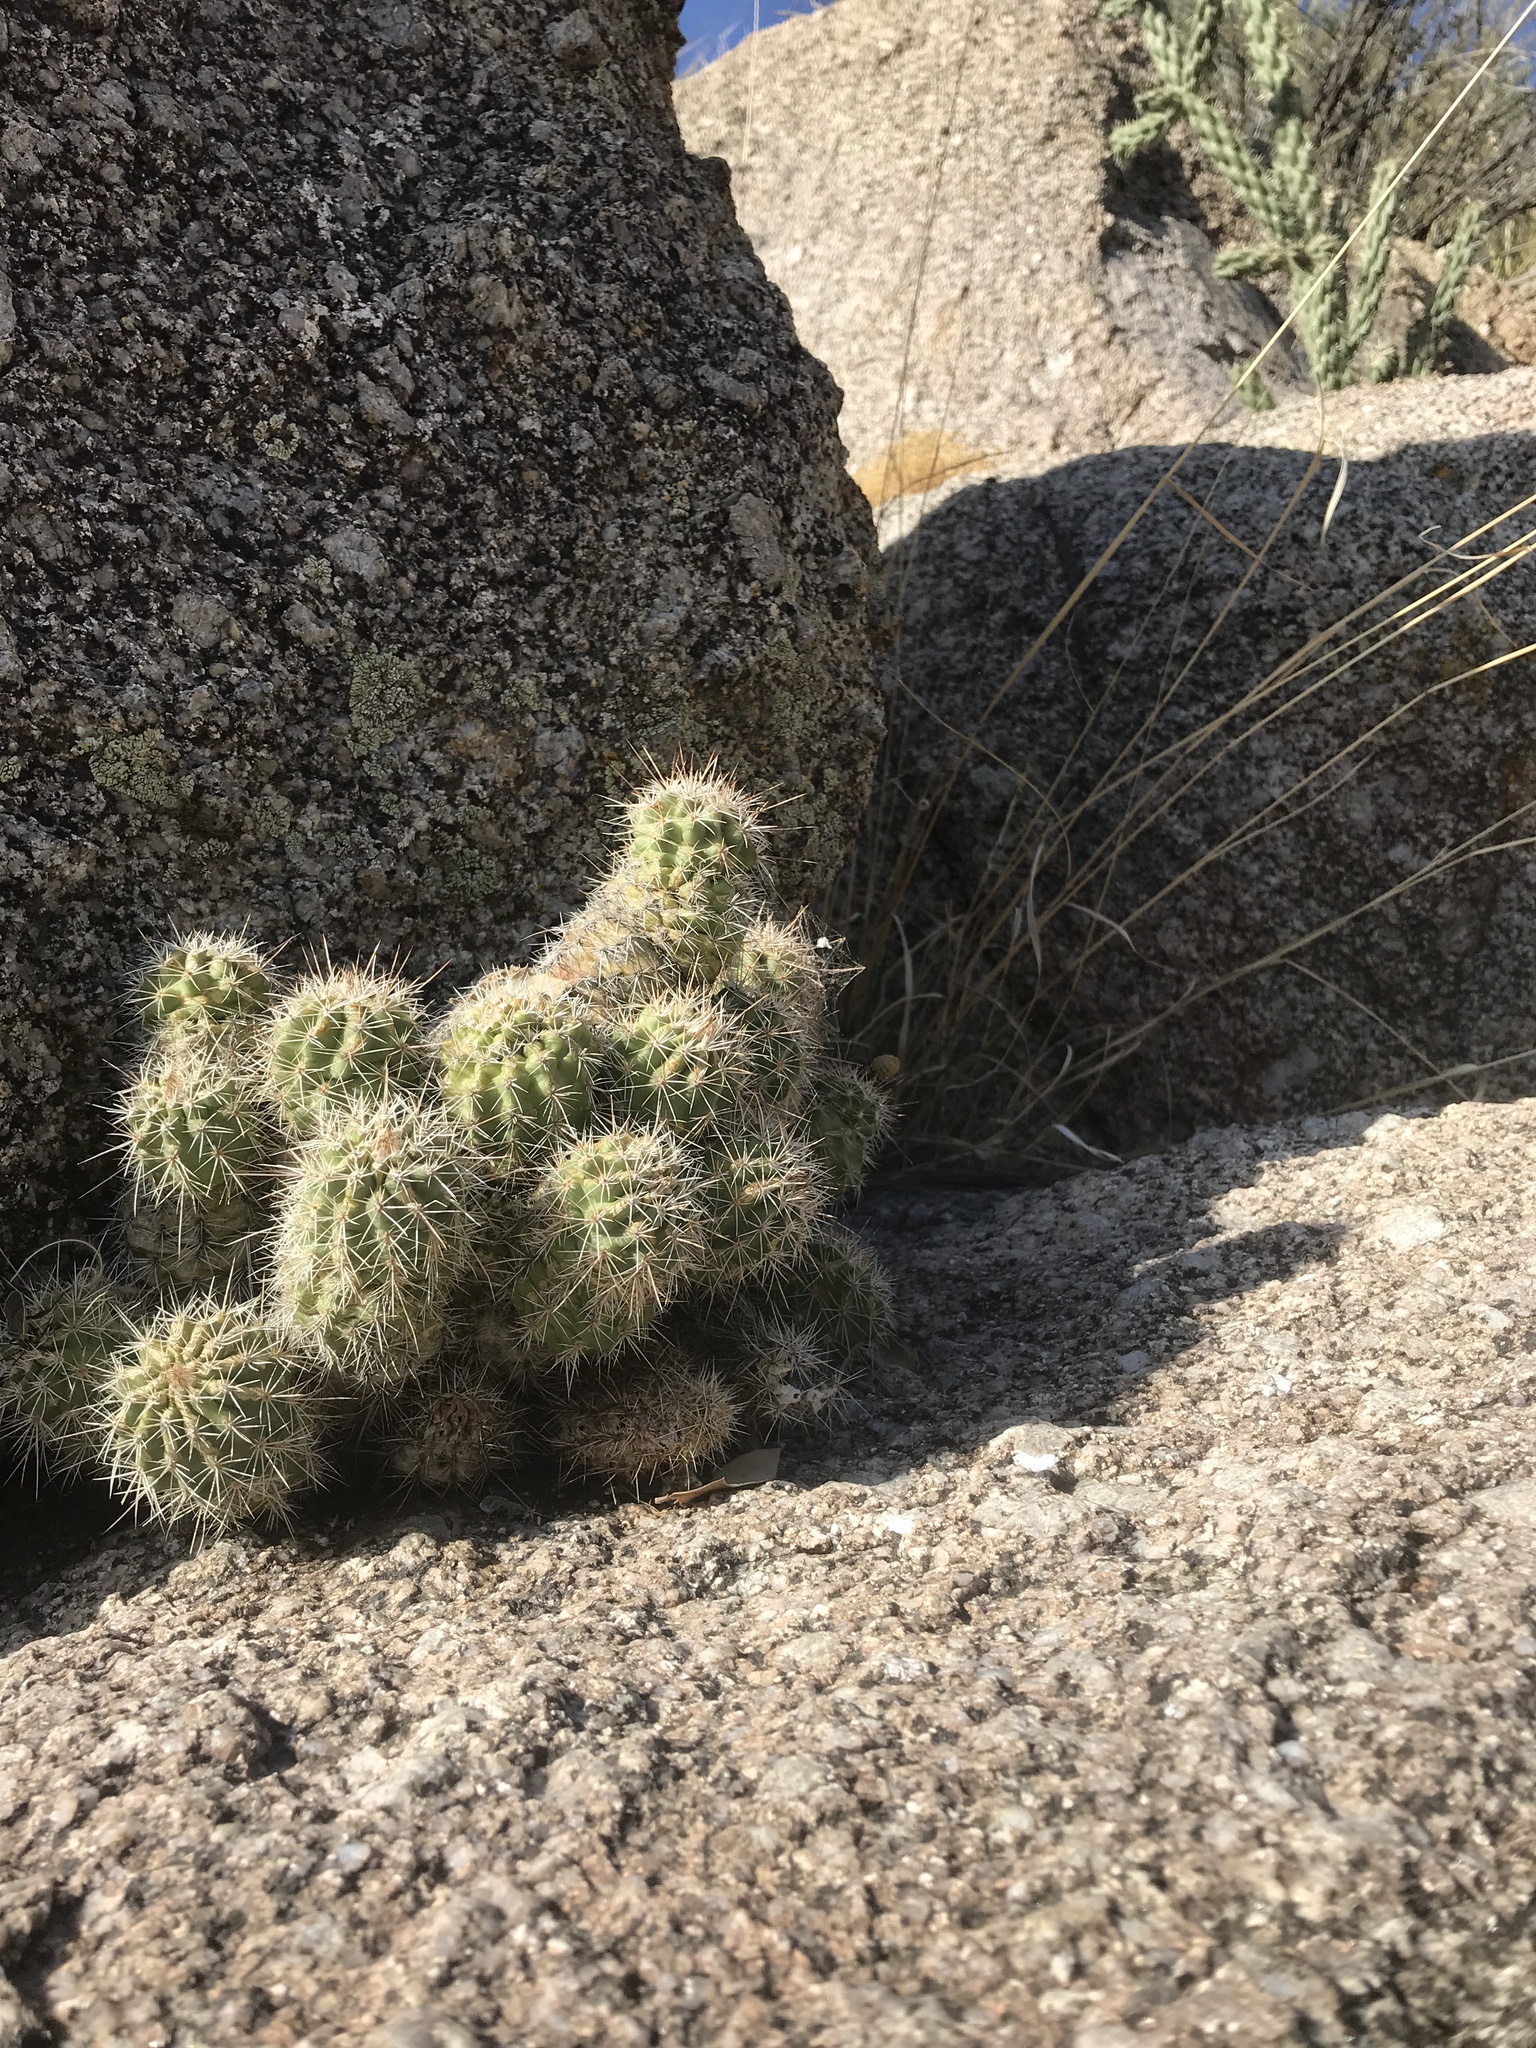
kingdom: Plantae
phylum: Tracheophyta
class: Magnoliopsida
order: Caryophyllales
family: Cactaceae
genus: Echinocereus
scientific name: Echinocereus coccineus
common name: Scarlet hedgehog cactus
